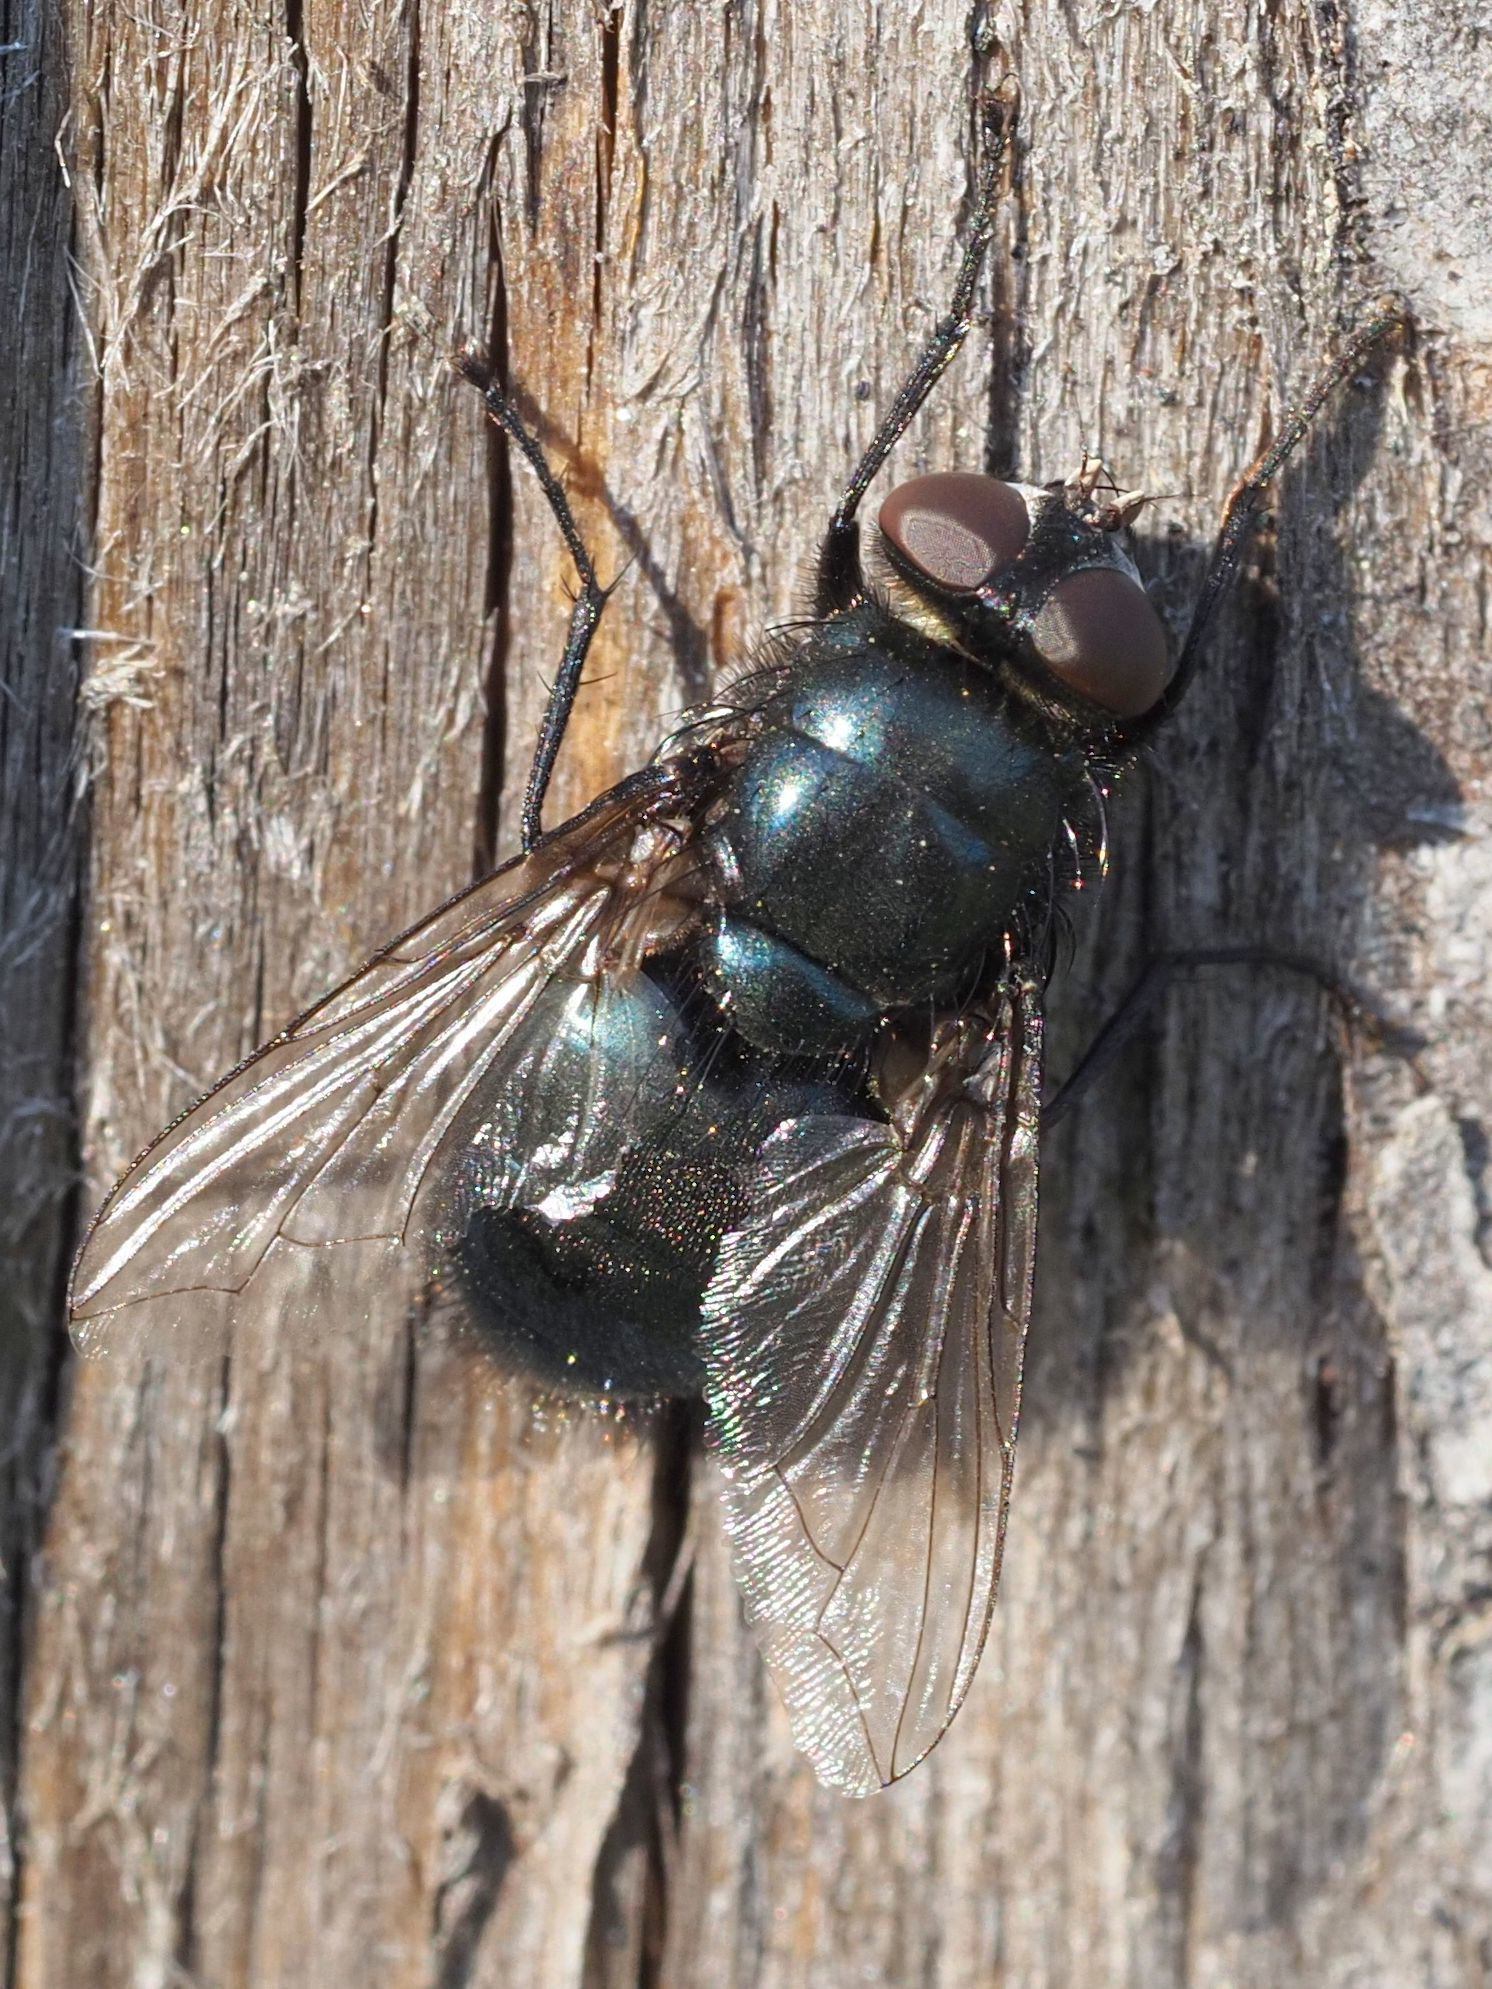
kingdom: Animalia
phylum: Arthropoda
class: Insecta
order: Diptera
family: Calliphoridae
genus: Protophormia
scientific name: Protophormia terraenovae
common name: Blackbottle
